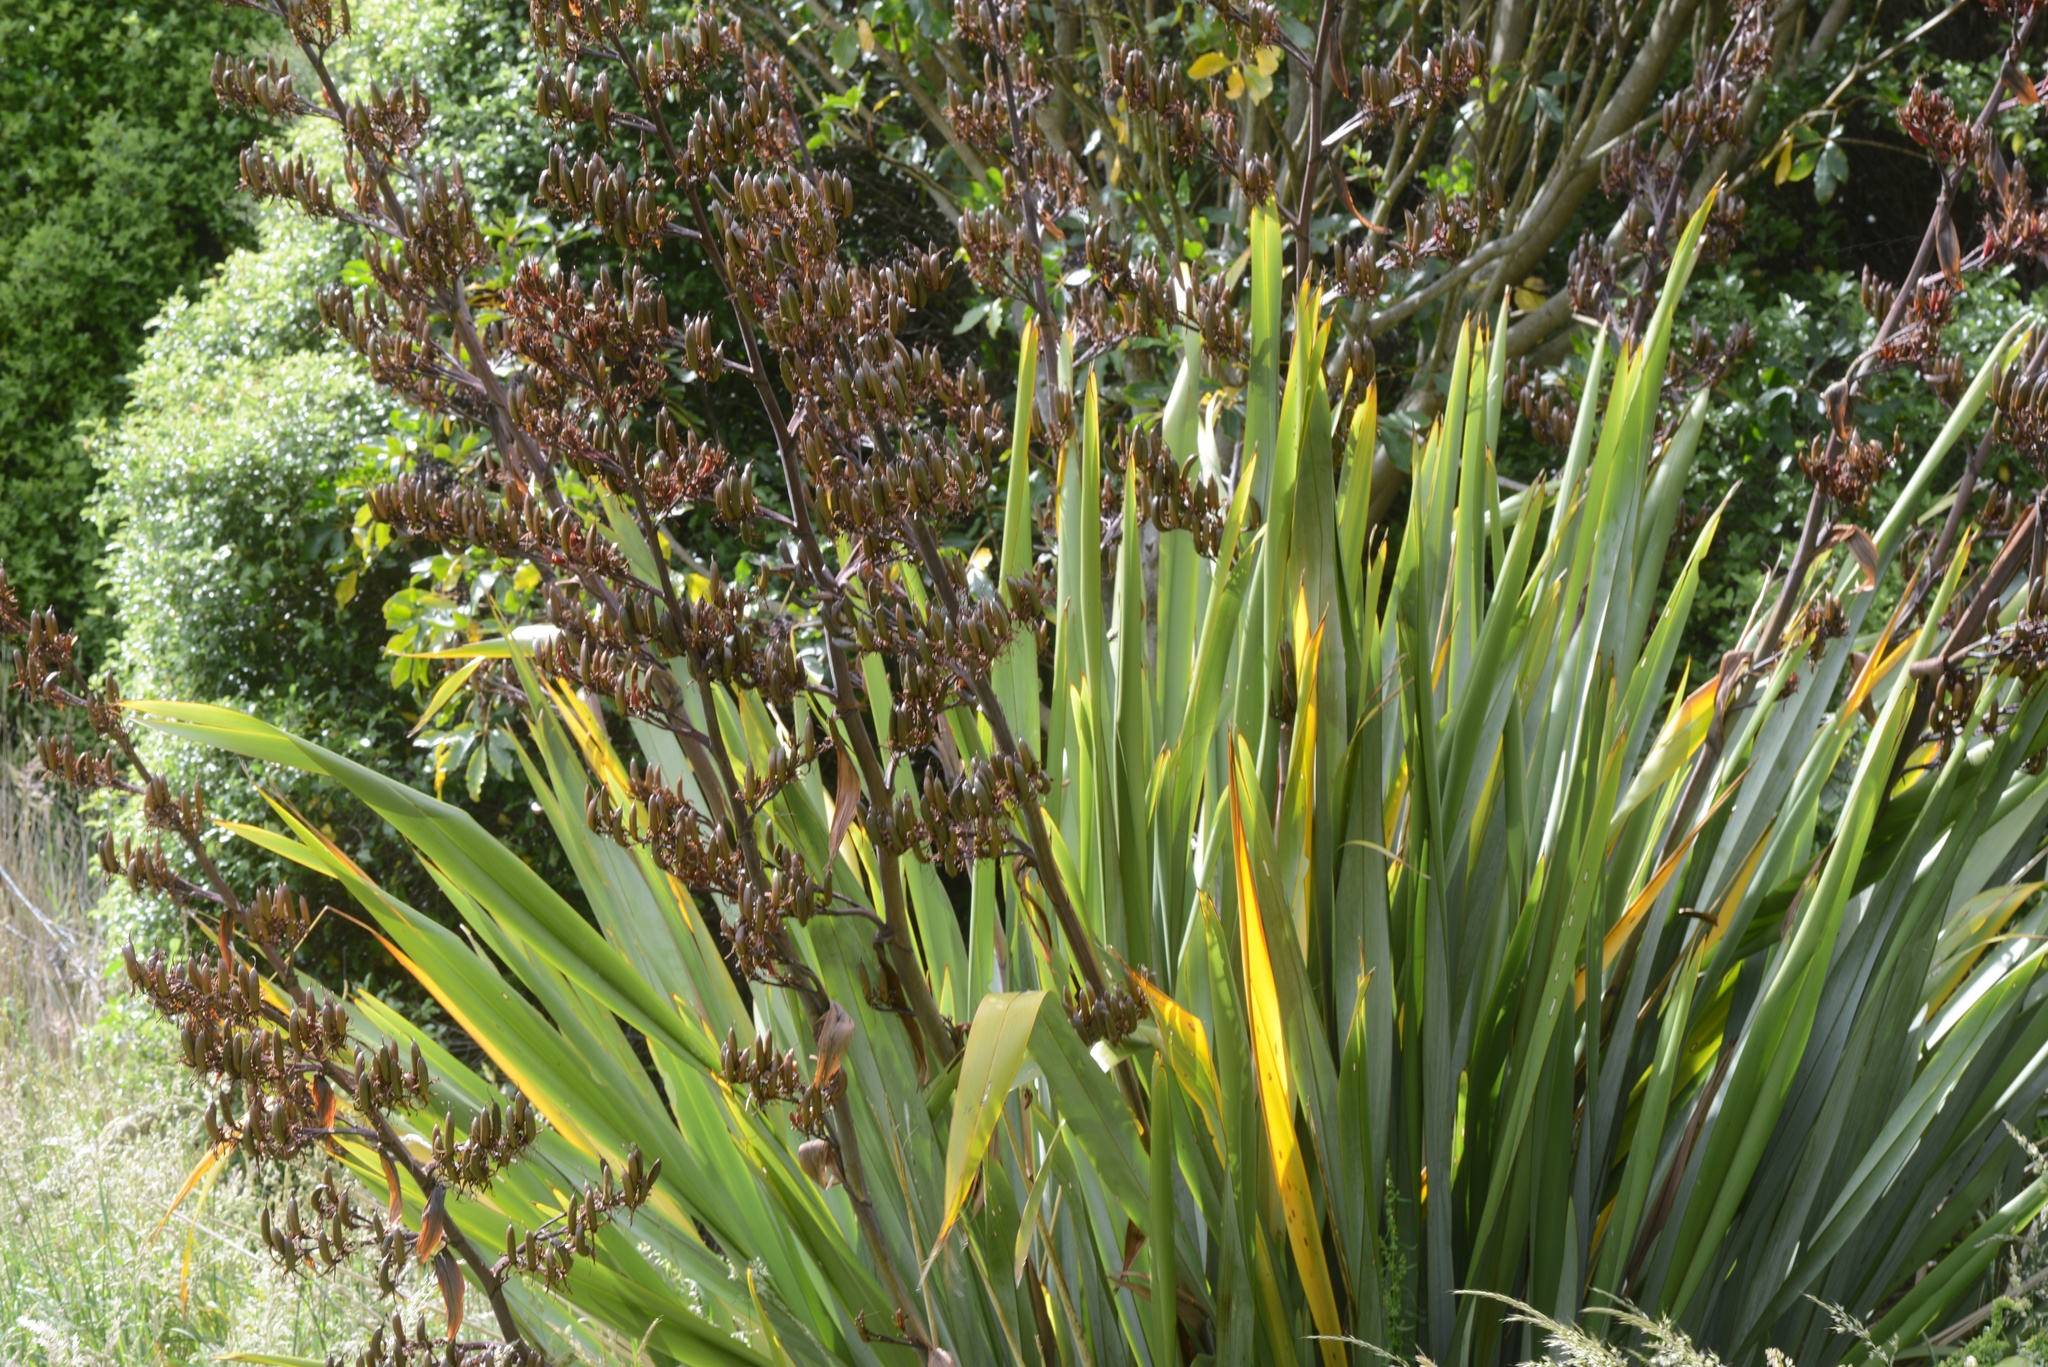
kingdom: Plantae
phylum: Tracheophyta
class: Liliopsida
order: Asparagales
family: Asphodelaceae
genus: Phormium
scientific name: Phormium tenax
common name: New zealand flax
